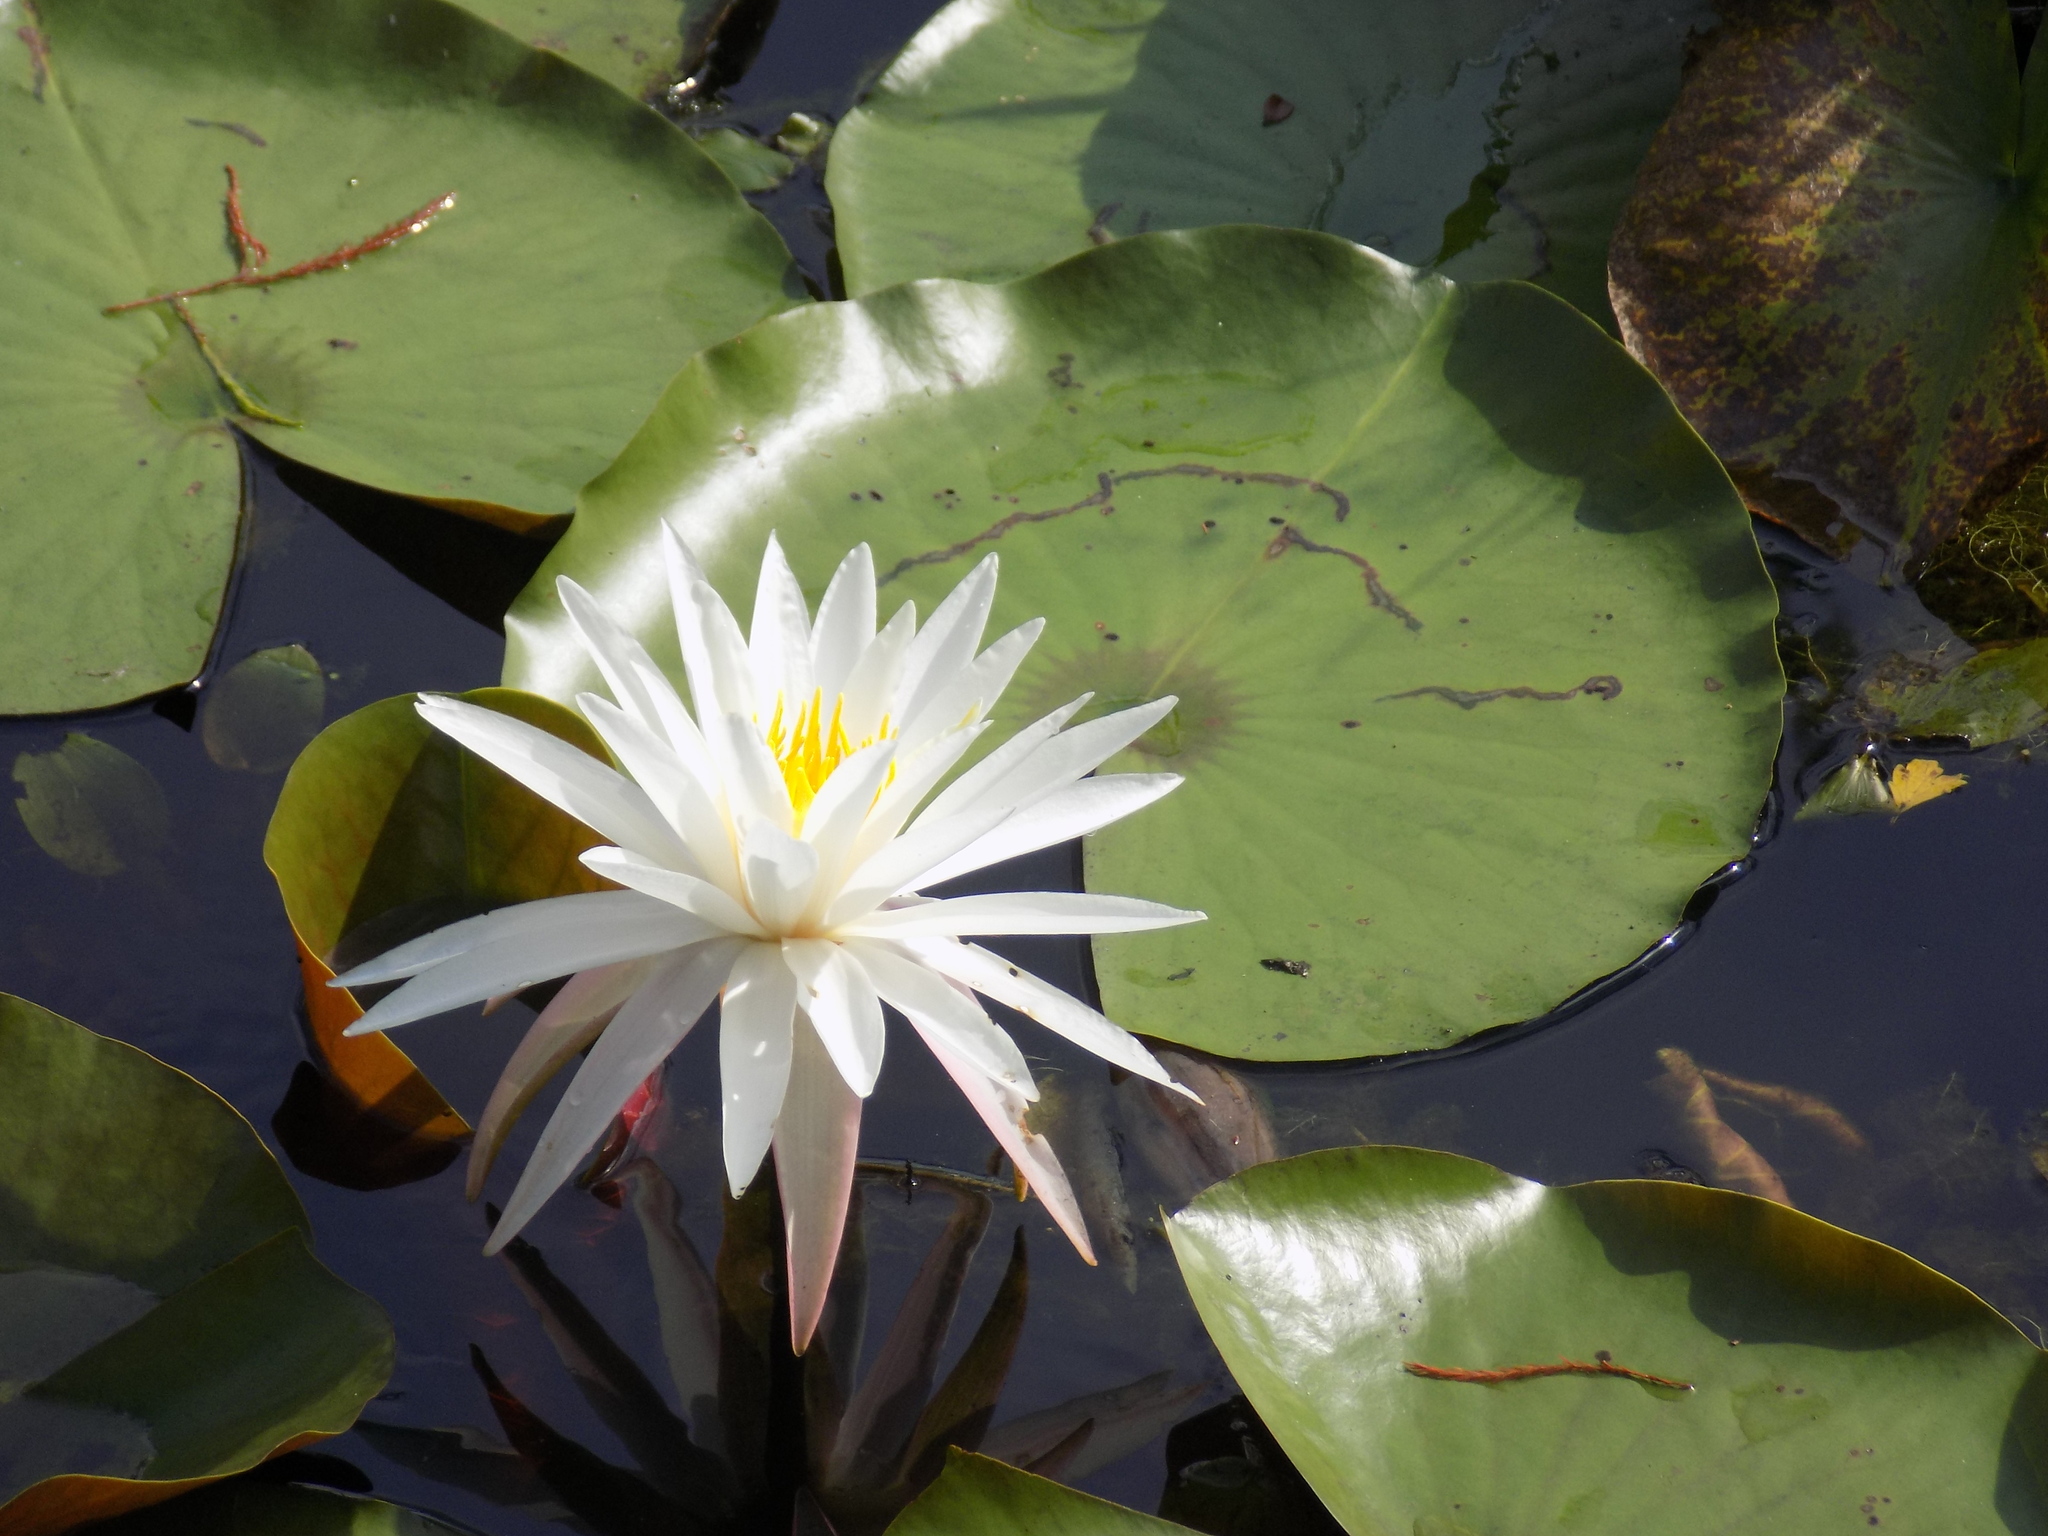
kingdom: Plantae
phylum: Tracheophyta
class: Magnoliopsida
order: Nymphaeales
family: Nymphaeaceae
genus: Nymphaea
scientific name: Nymphaea odorata
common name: Fragrant water-lily
